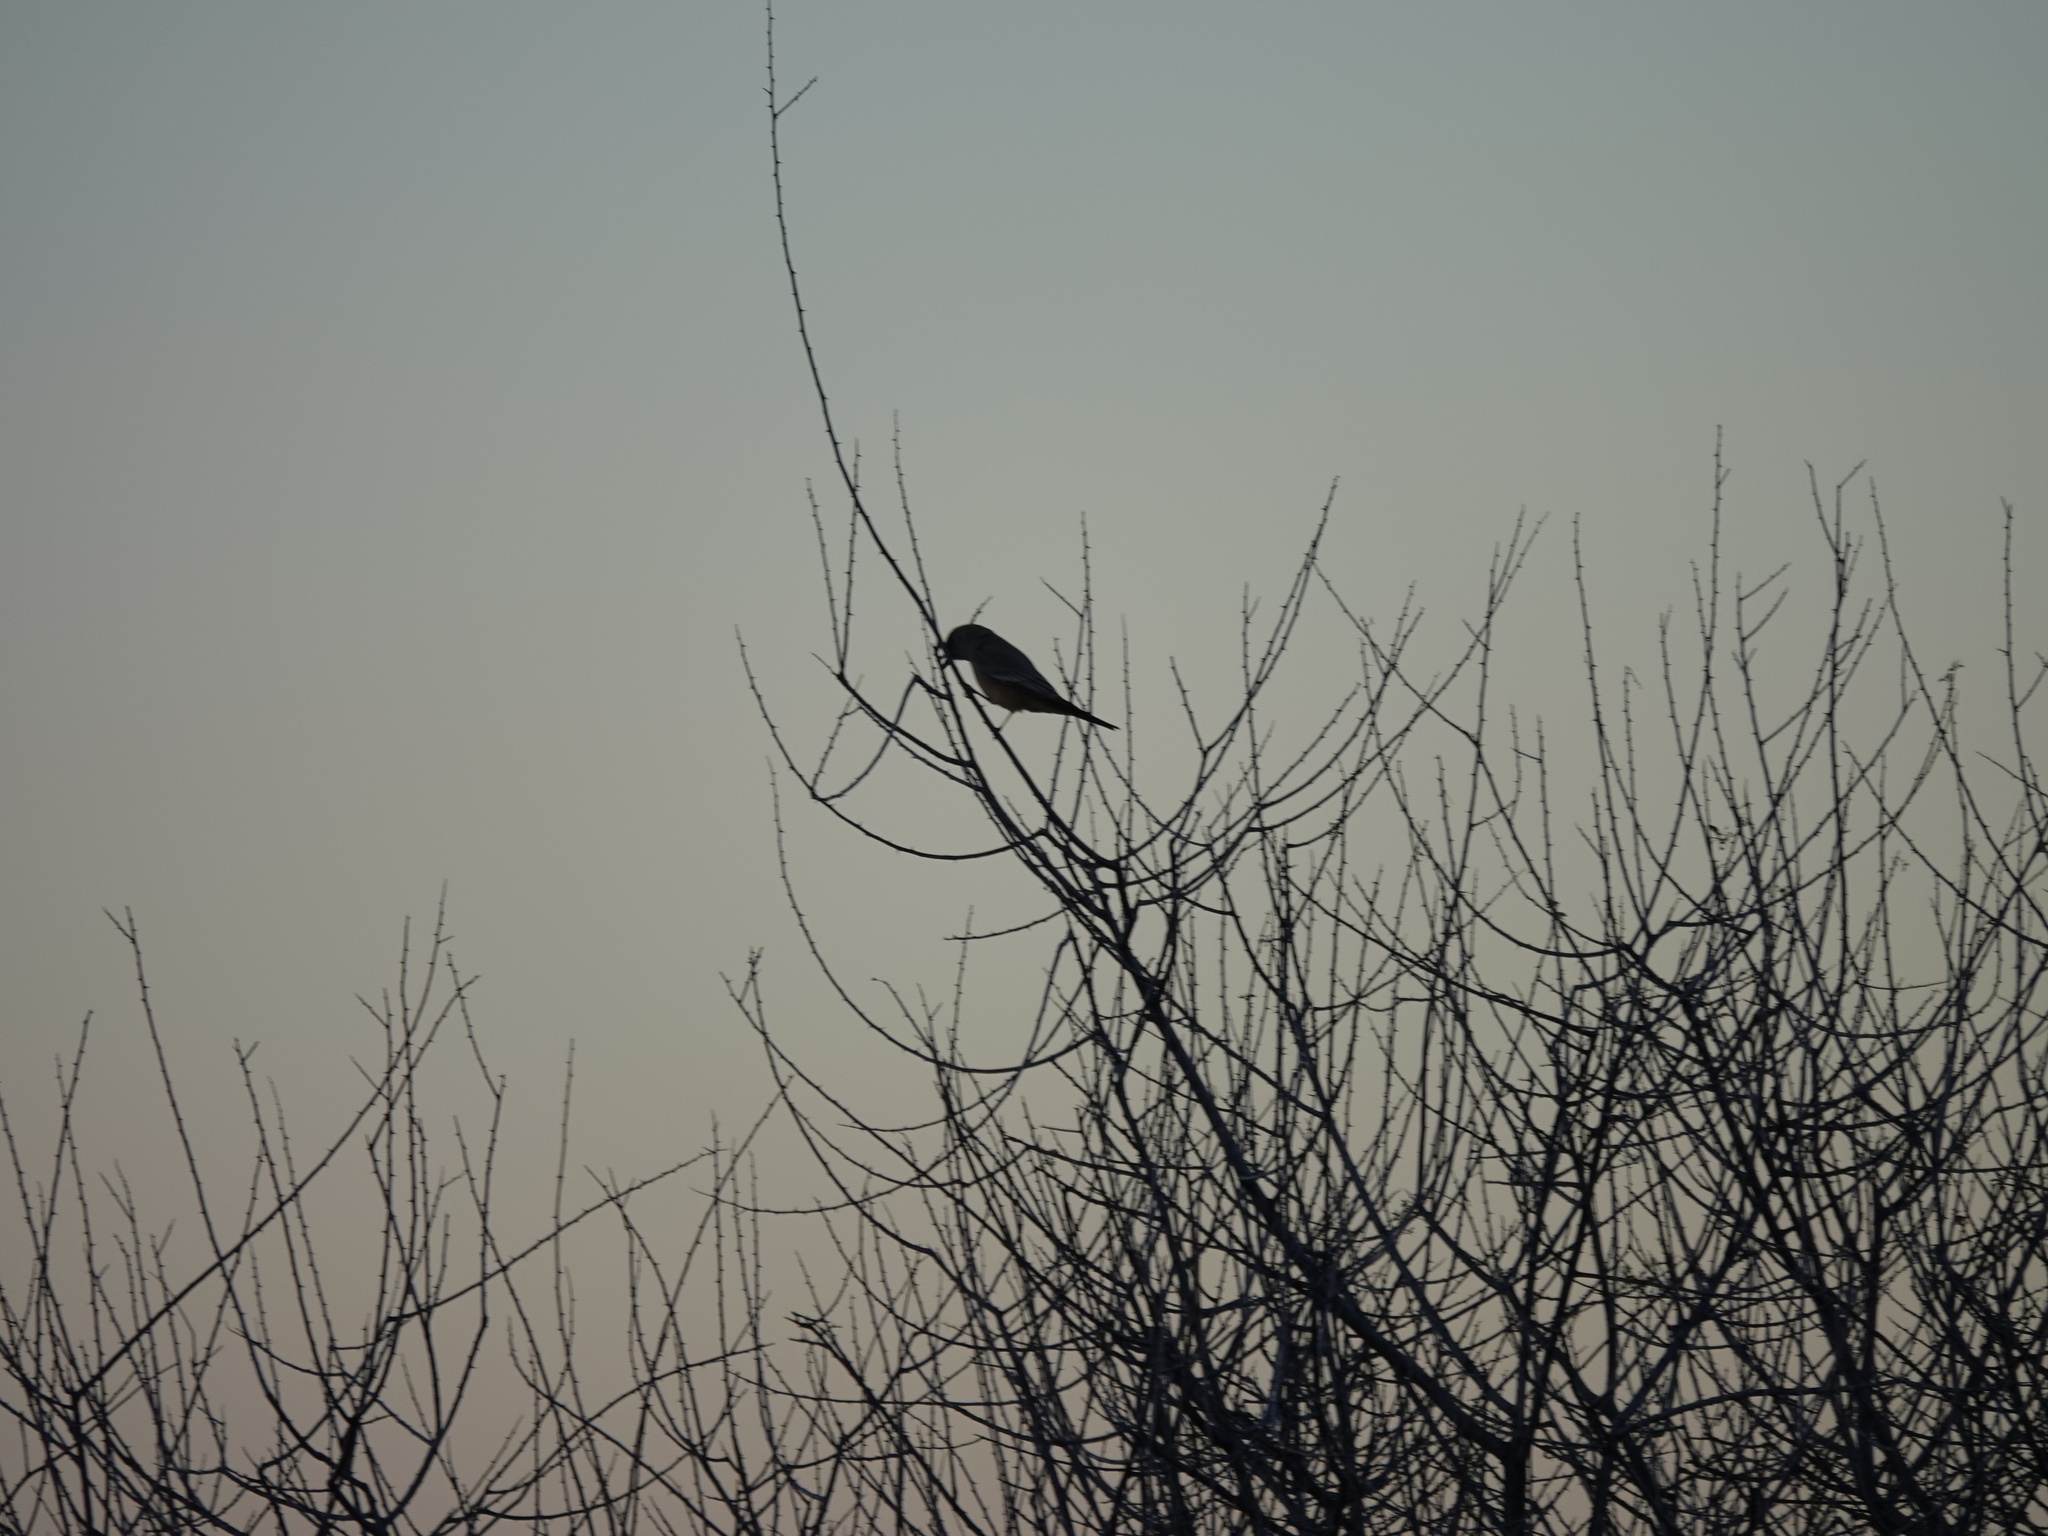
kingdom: Animalia
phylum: Chordata
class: Aves
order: Passeriformes
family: Tyrannidae
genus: Sayornis
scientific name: Sayornis saya
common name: Say's phoebe
